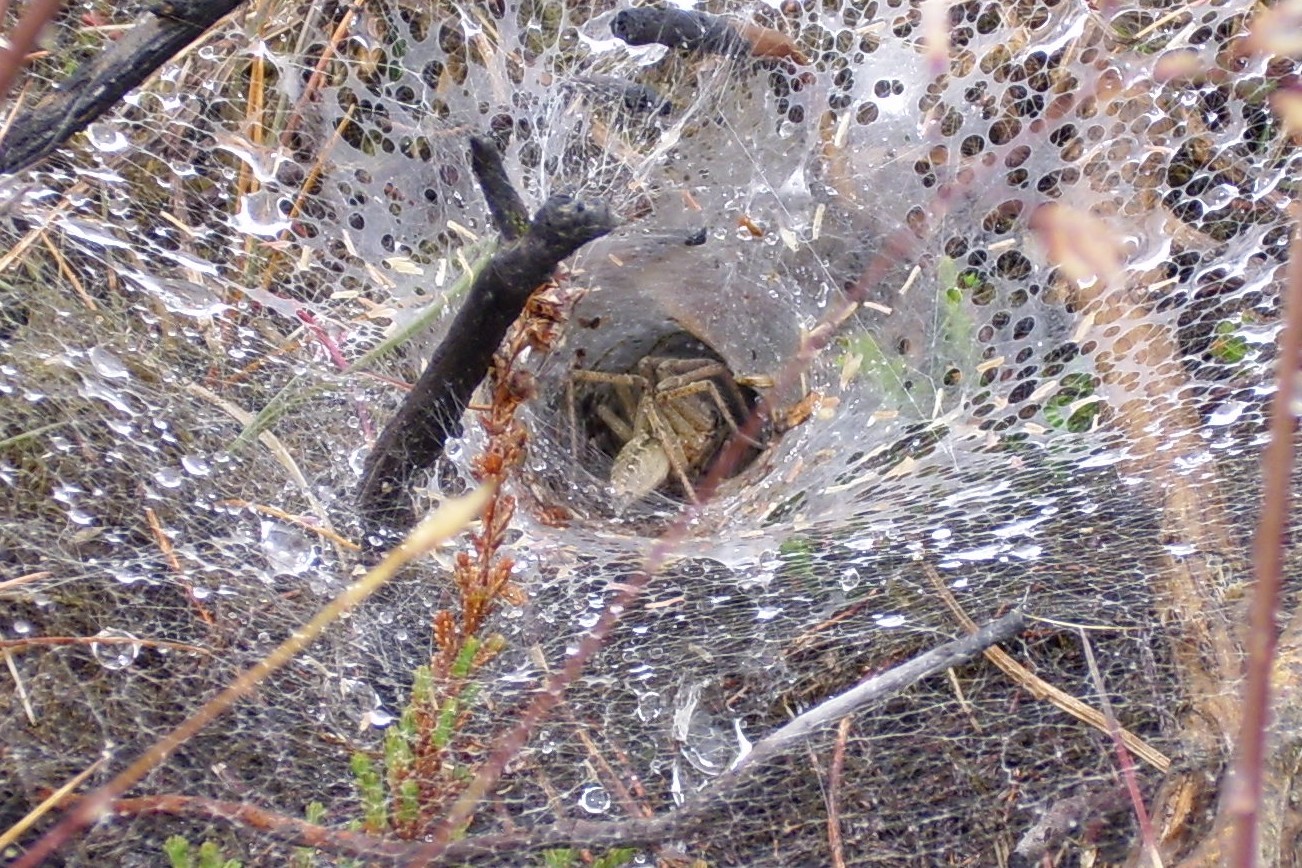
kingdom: Animalia
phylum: Arthropoda
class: Arachnida
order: Araneae
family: Agelenidae
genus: Agelena
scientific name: Agelena labyrinthica
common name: Labyrinth spider
